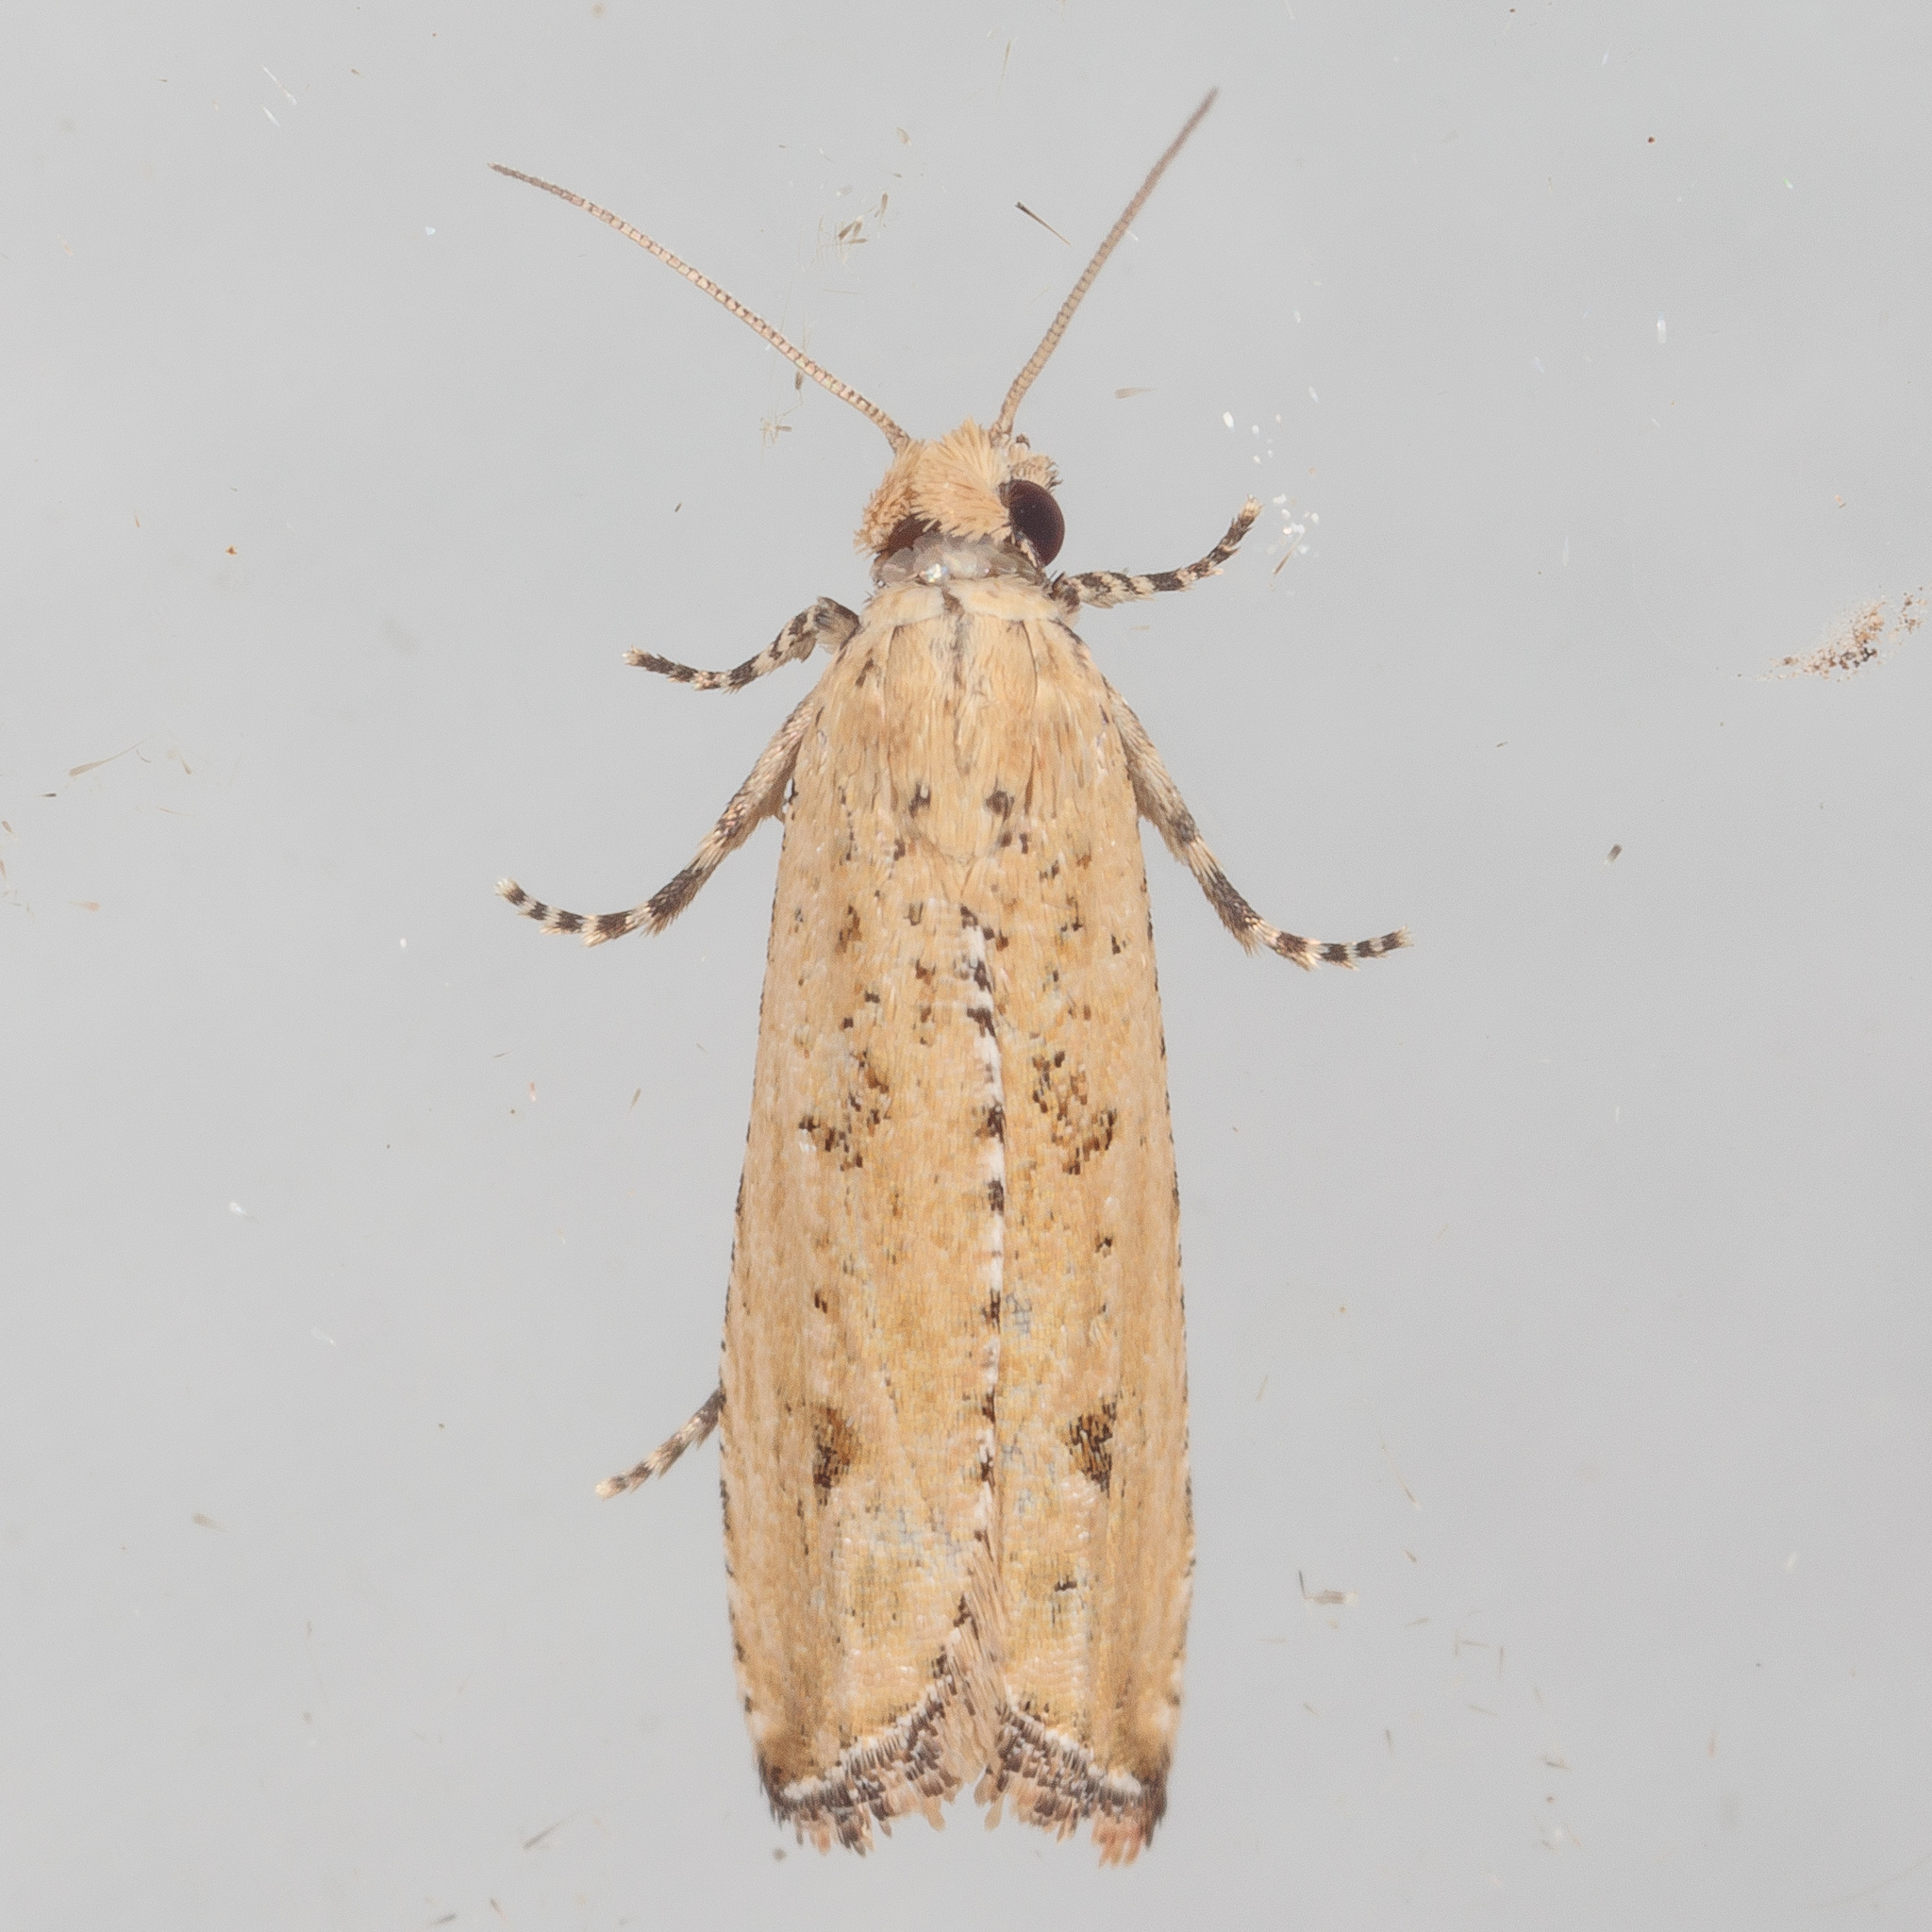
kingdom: Animalia
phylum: Arthropoda
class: Insecta
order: Lepidoptera
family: Tortricidae
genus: Bactra
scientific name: Bactra verutana
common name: Javelin moth
